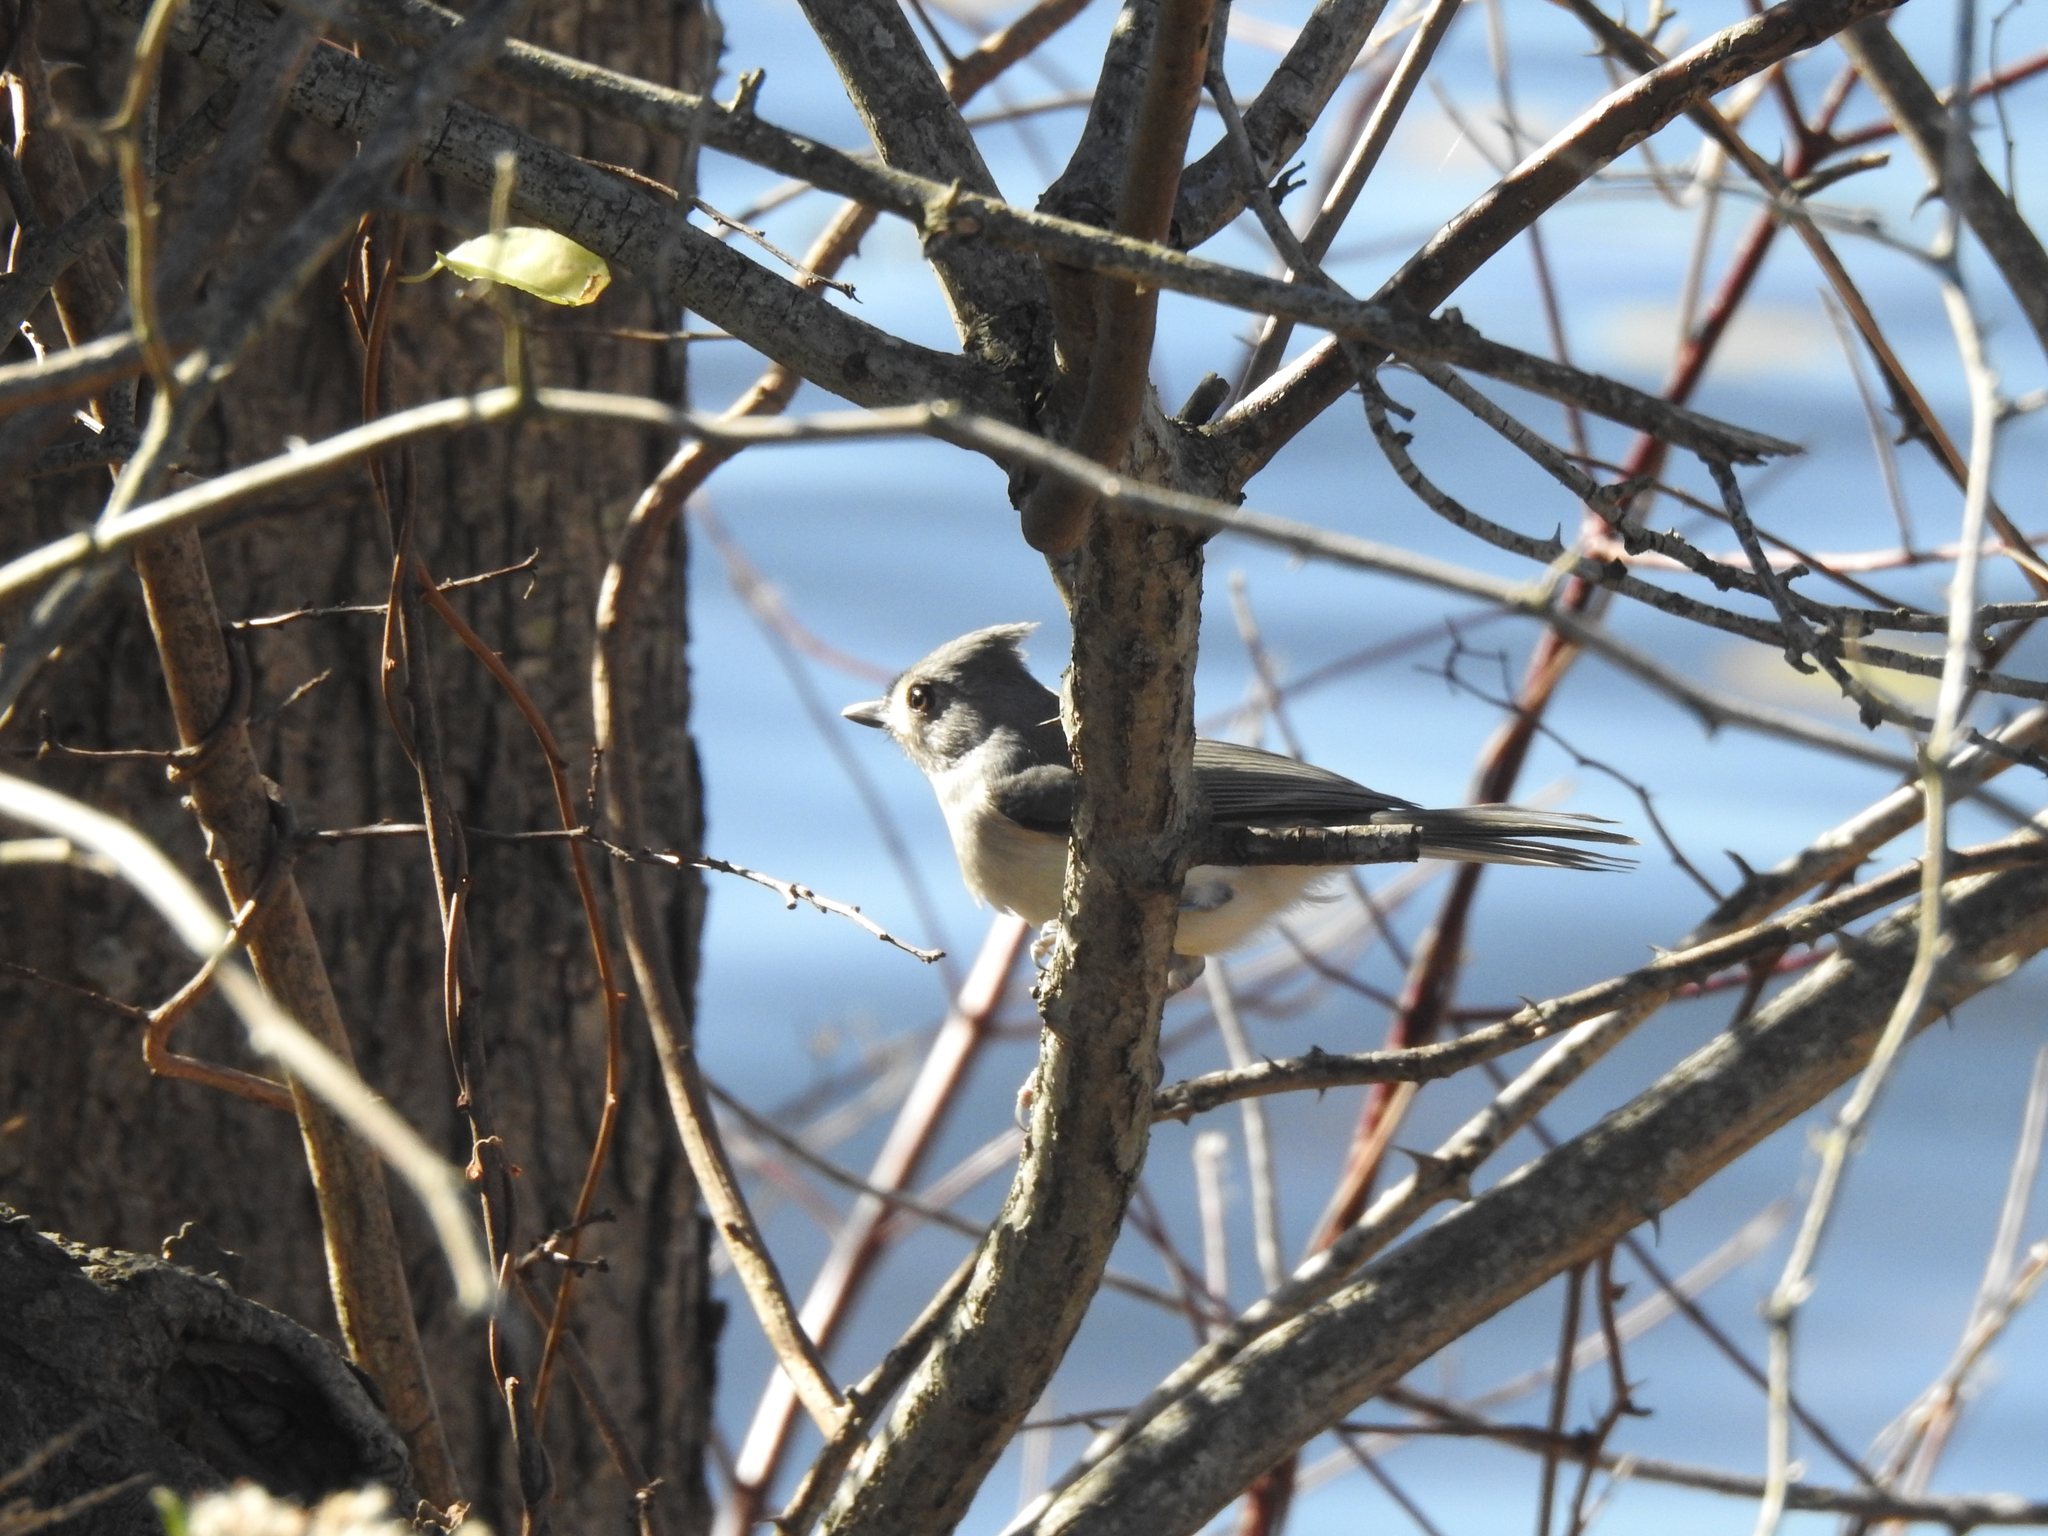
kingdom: Animalia
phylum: Chordata
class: Aves
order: Passeriformes
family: Paridae
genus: Baeolophus
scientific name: Baeolophus bicolor
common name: Tufted titmouse
